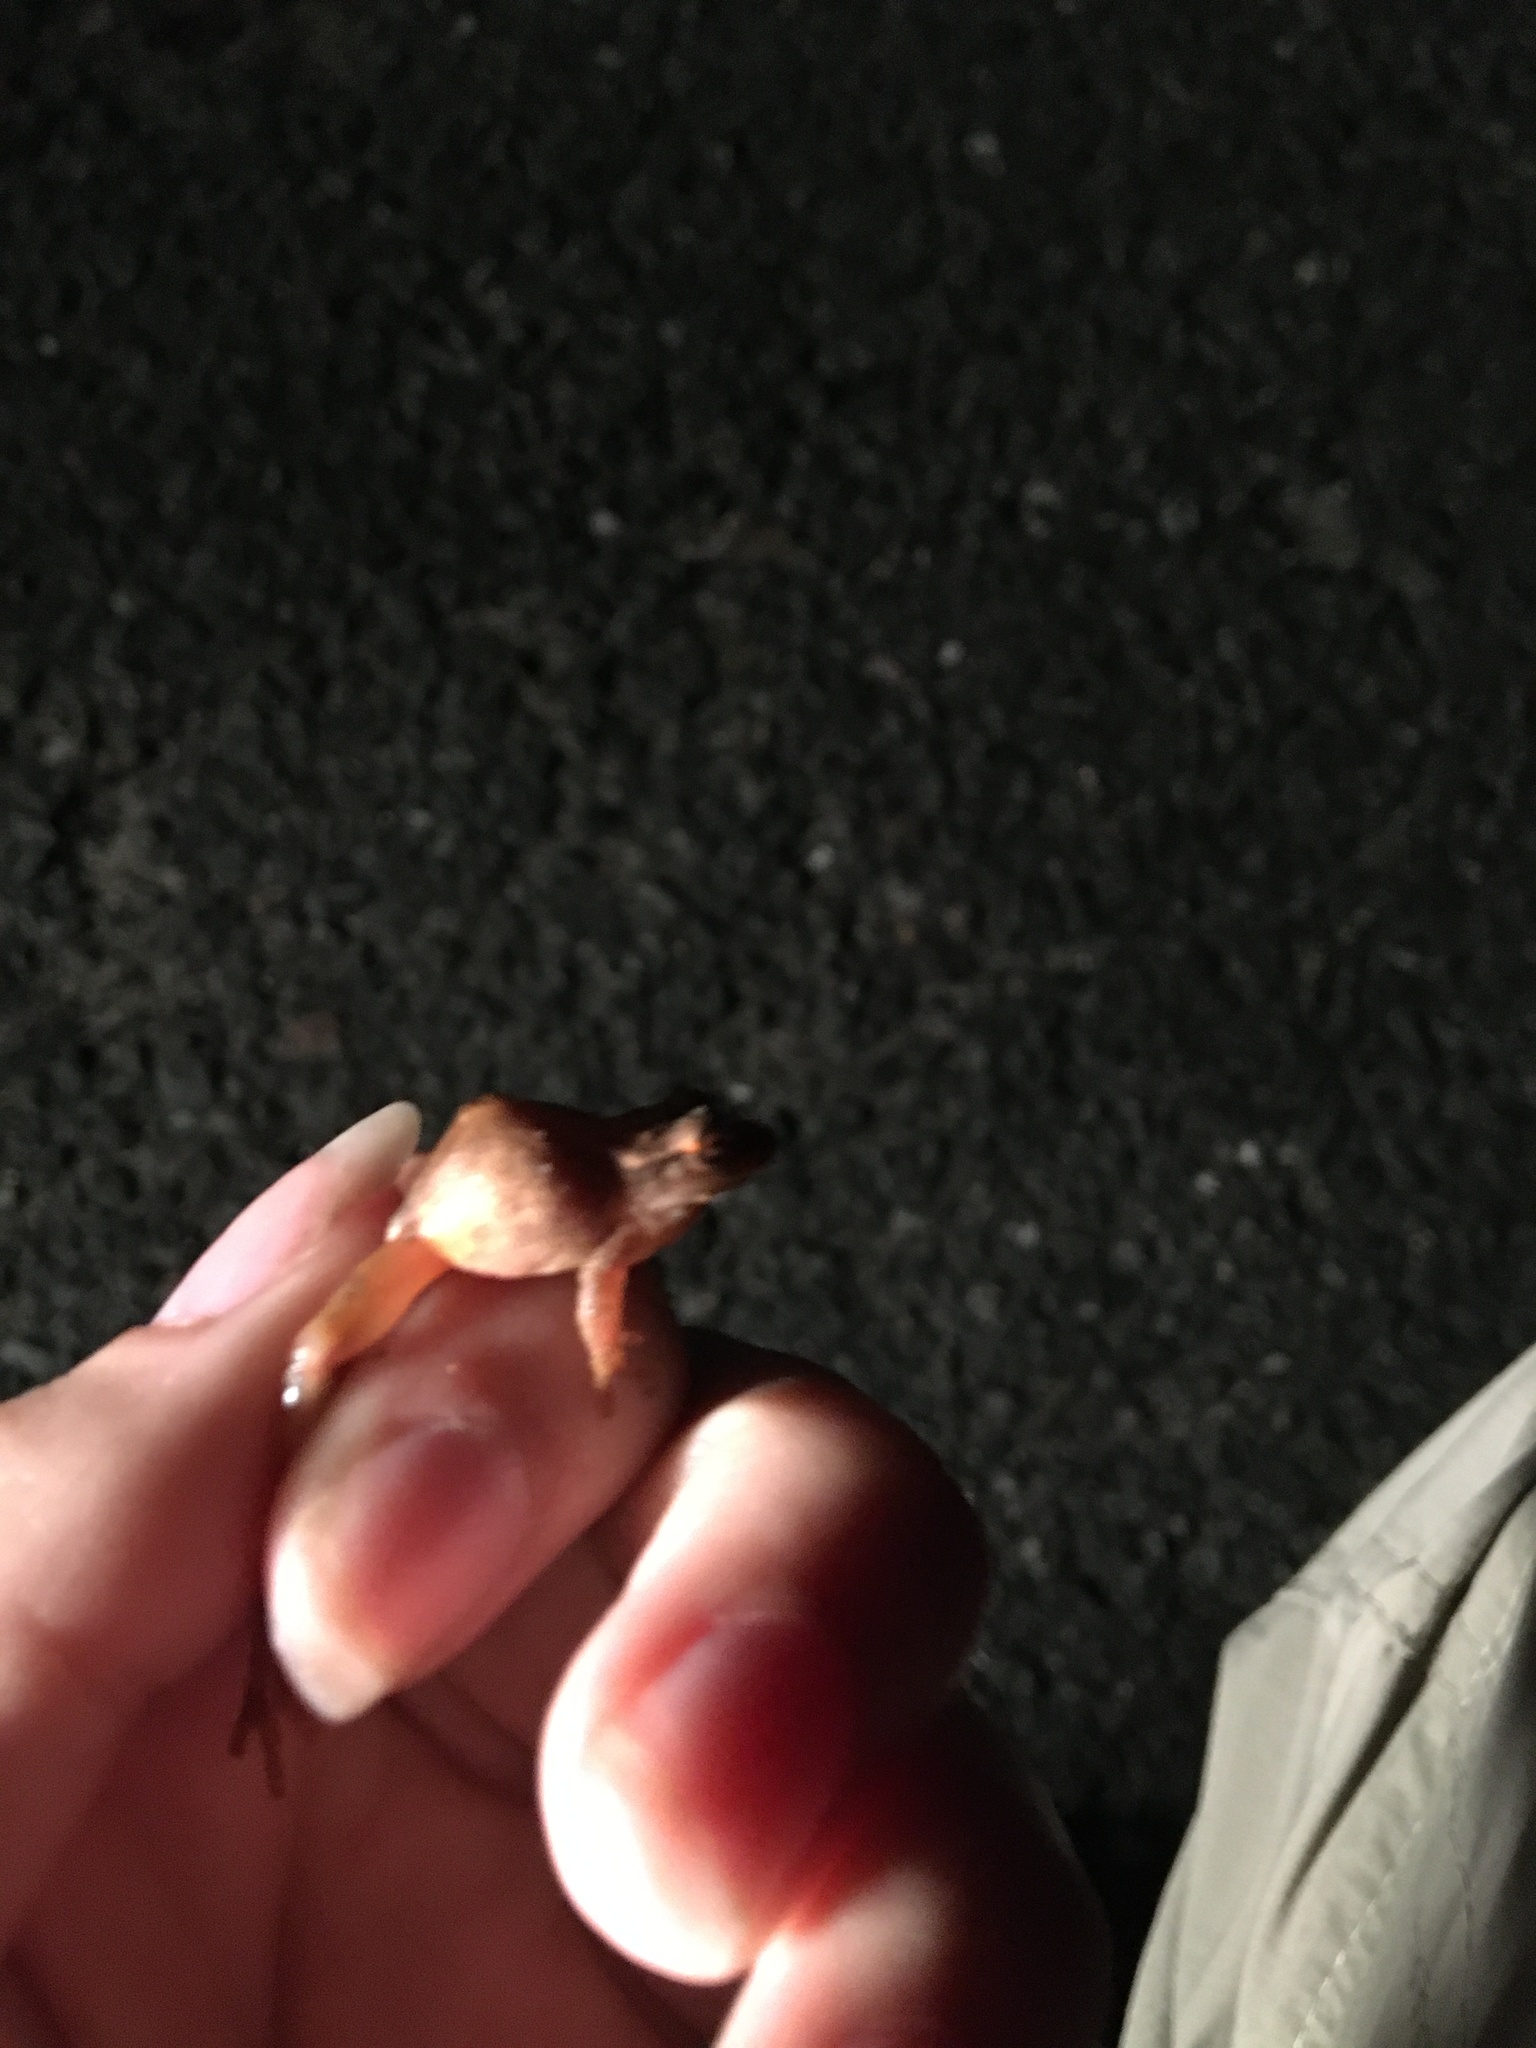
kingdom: Animalia
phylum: Chordata
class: Amphibia
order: Anura
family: Hylidae
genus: Pseudacris
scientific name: Pseudacris crucifer
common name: Spring peeper
